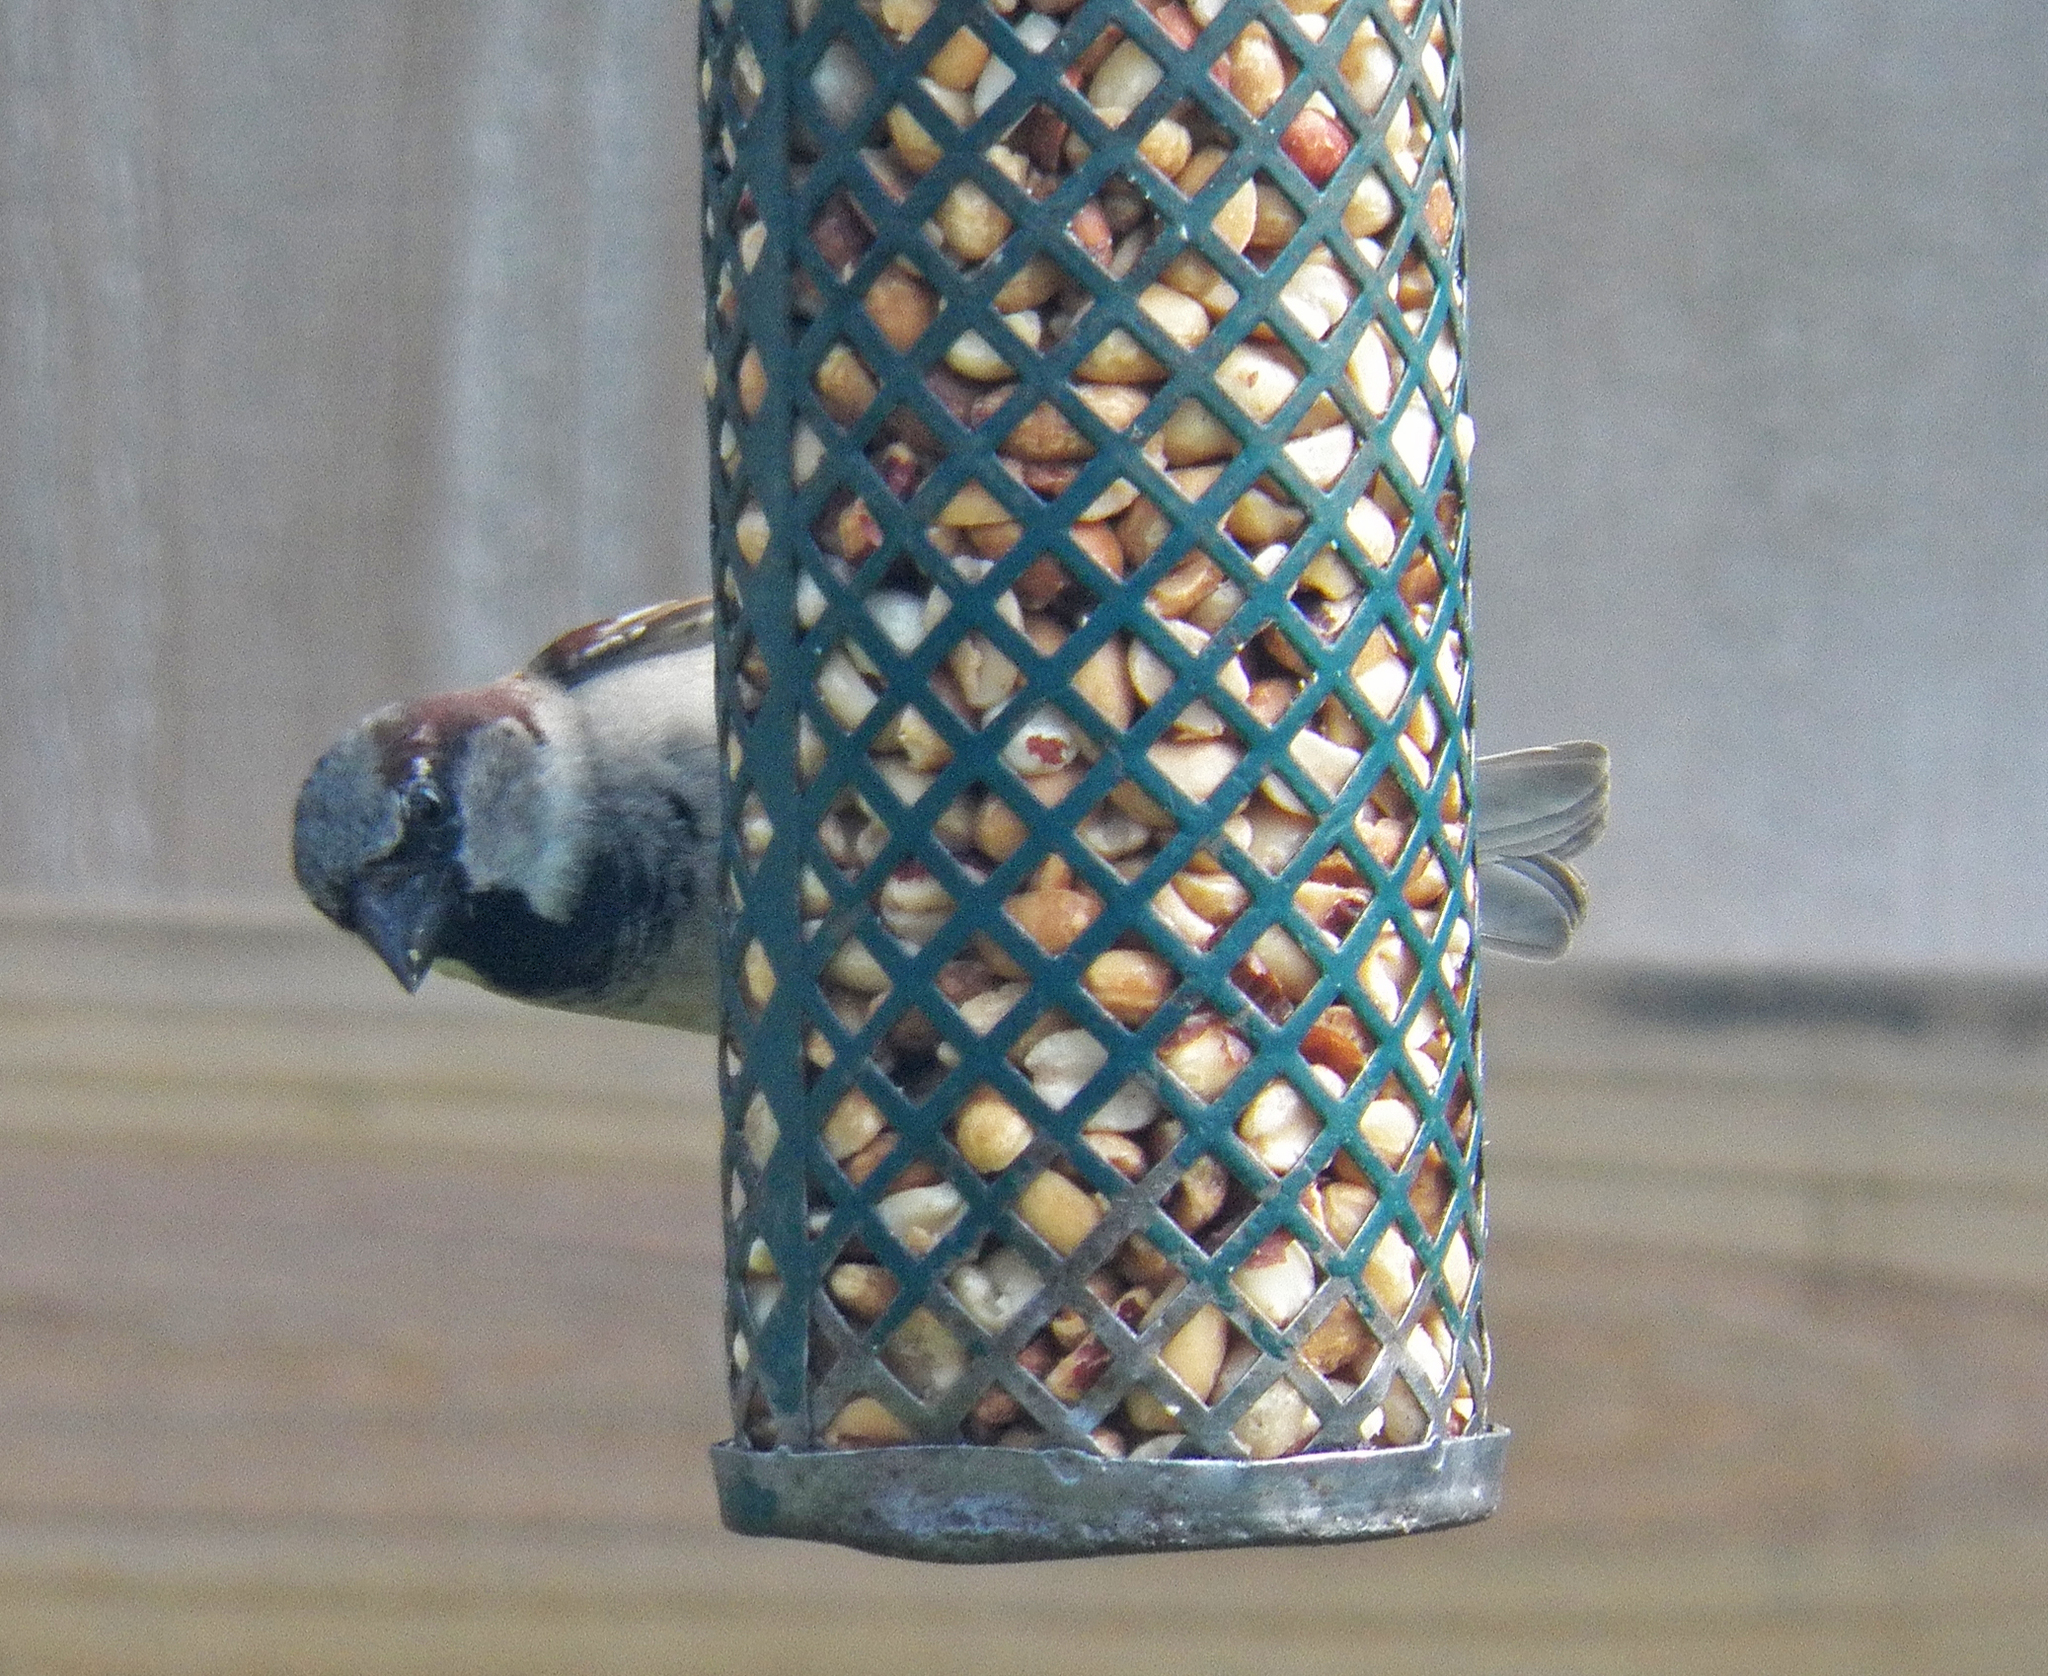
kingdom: Animalia
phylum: Chordata
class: Aves
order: Passeriformes
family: Passeridae
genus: Passer
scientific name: Passer domesticus
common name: House sparrow
